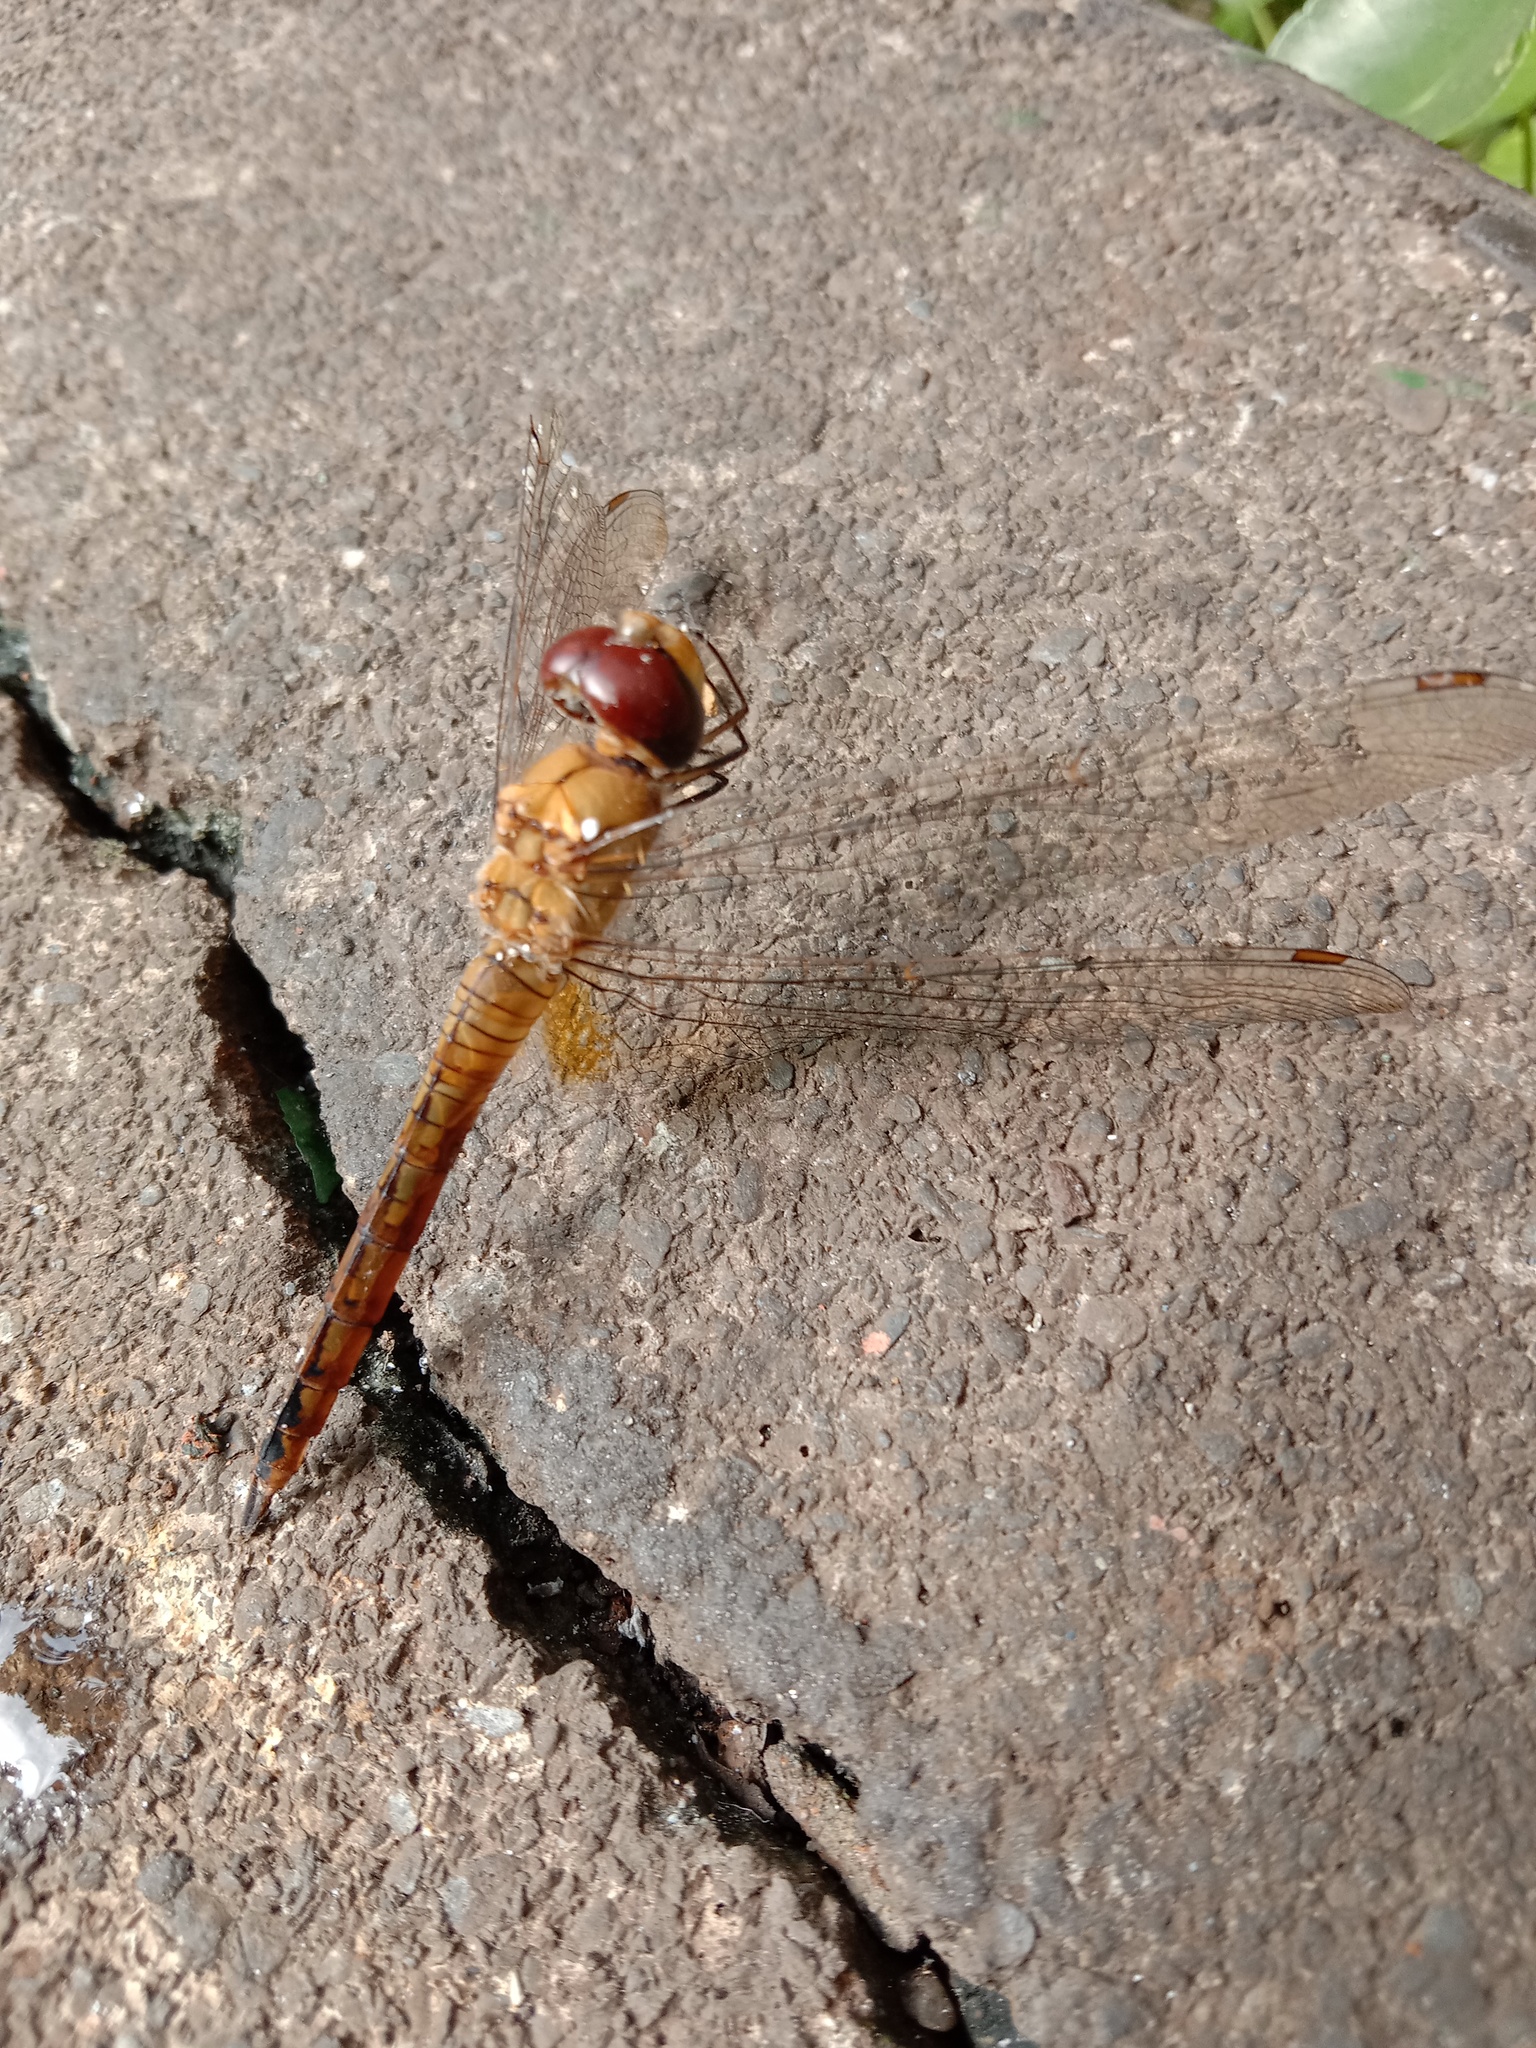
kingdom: Animalia
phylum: Arthropoda
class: Insecta
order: Odonata
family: Libellulidae
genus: Pantala
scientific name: Pantala flavescens
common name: Wandering glider
